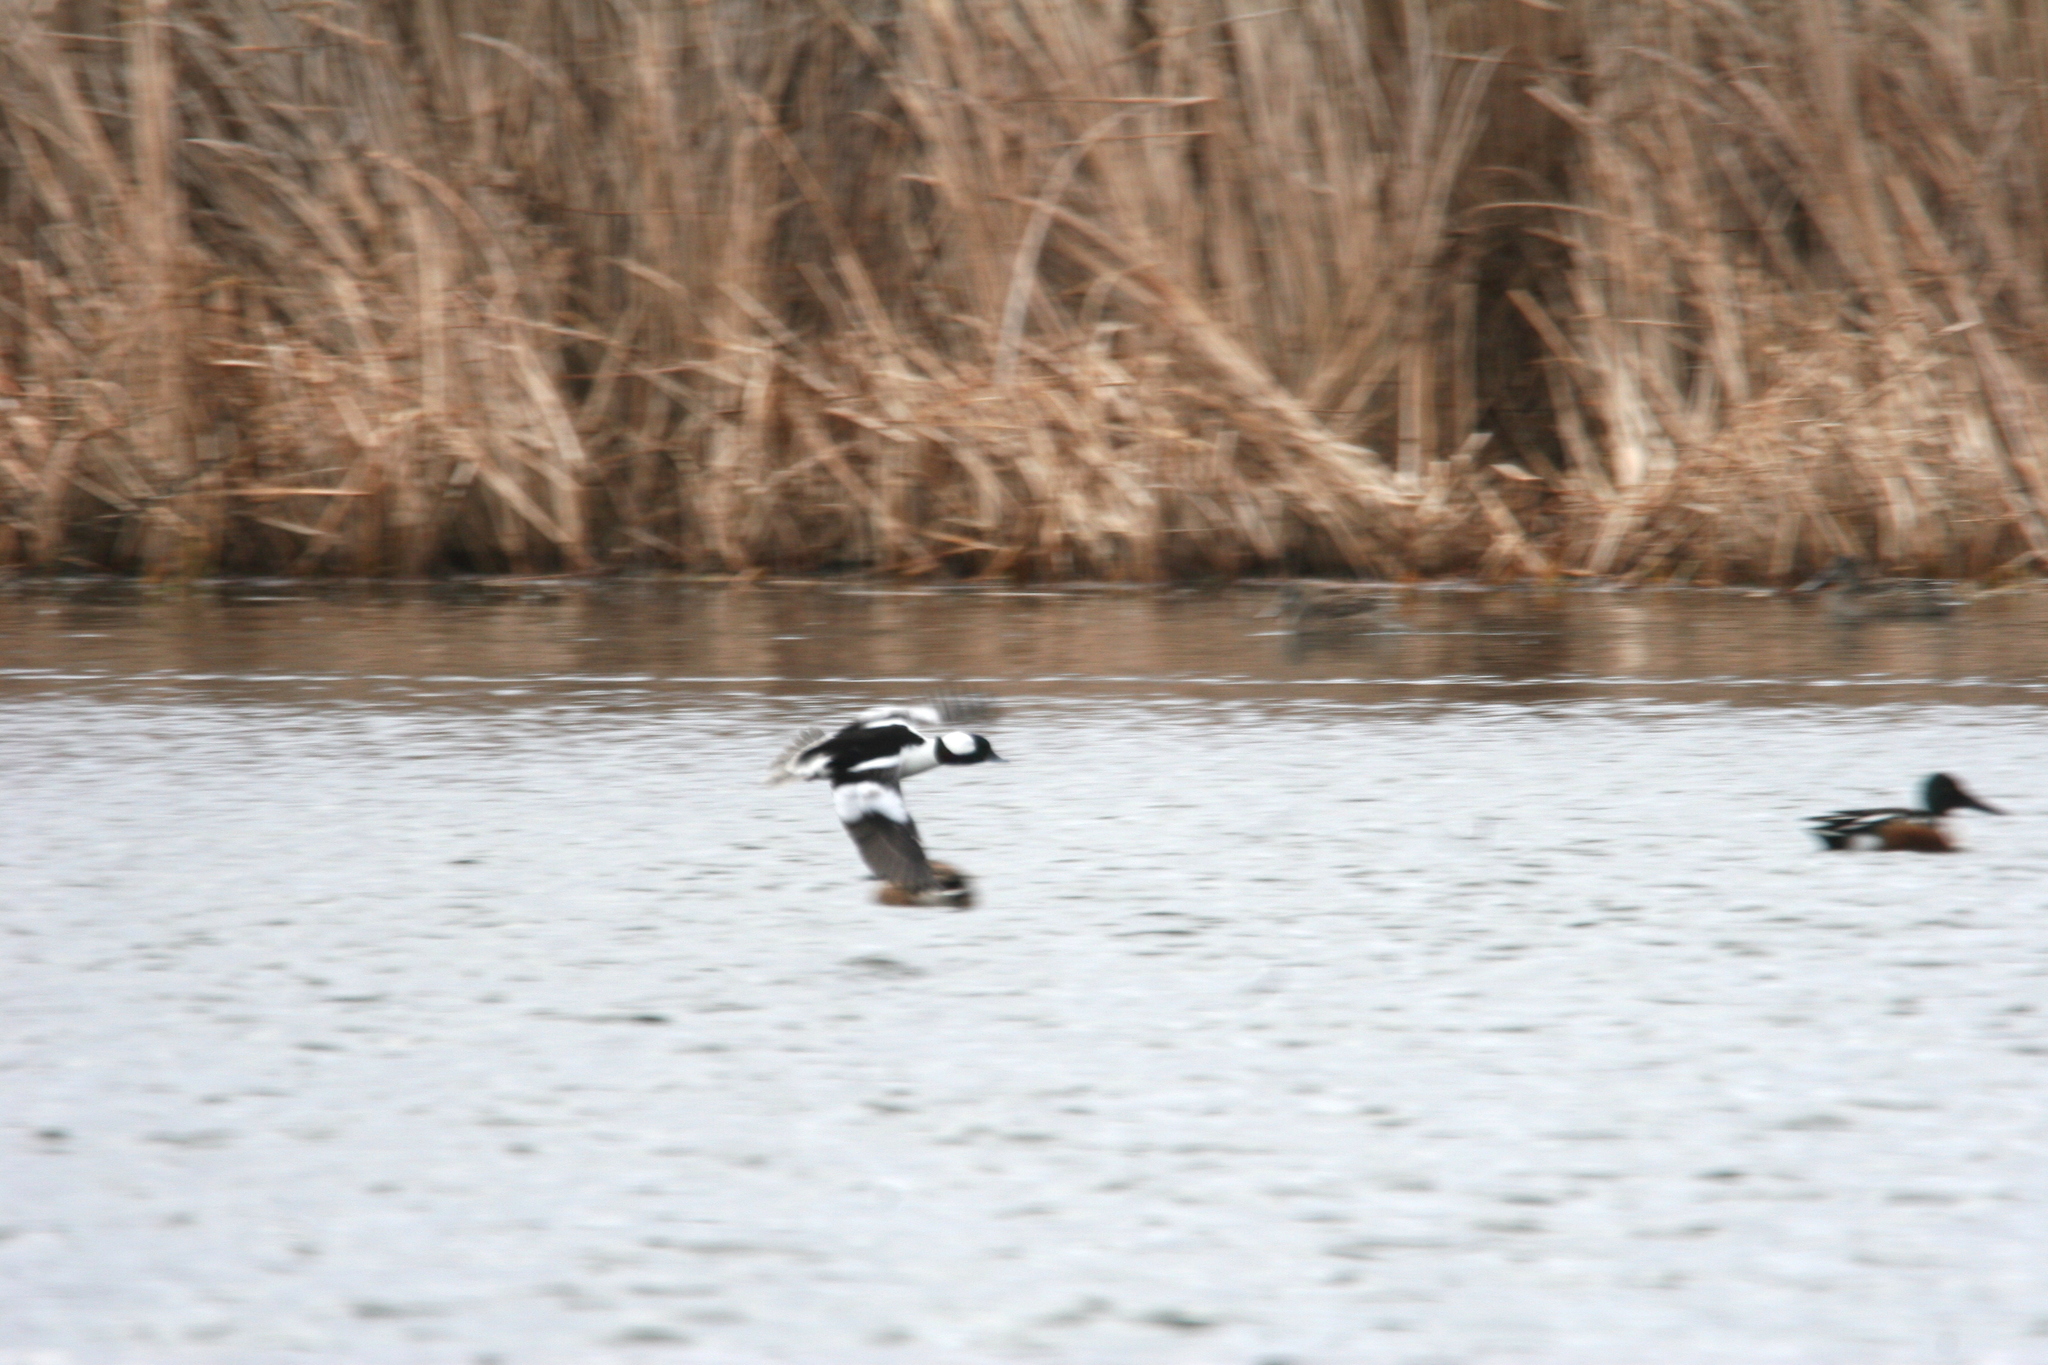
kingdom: Animalia
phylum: Chordata
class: Aves
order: Anseriformes
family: Anatidae
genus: Bucephala
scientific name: Bucephala albeola
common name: Bufflehead
